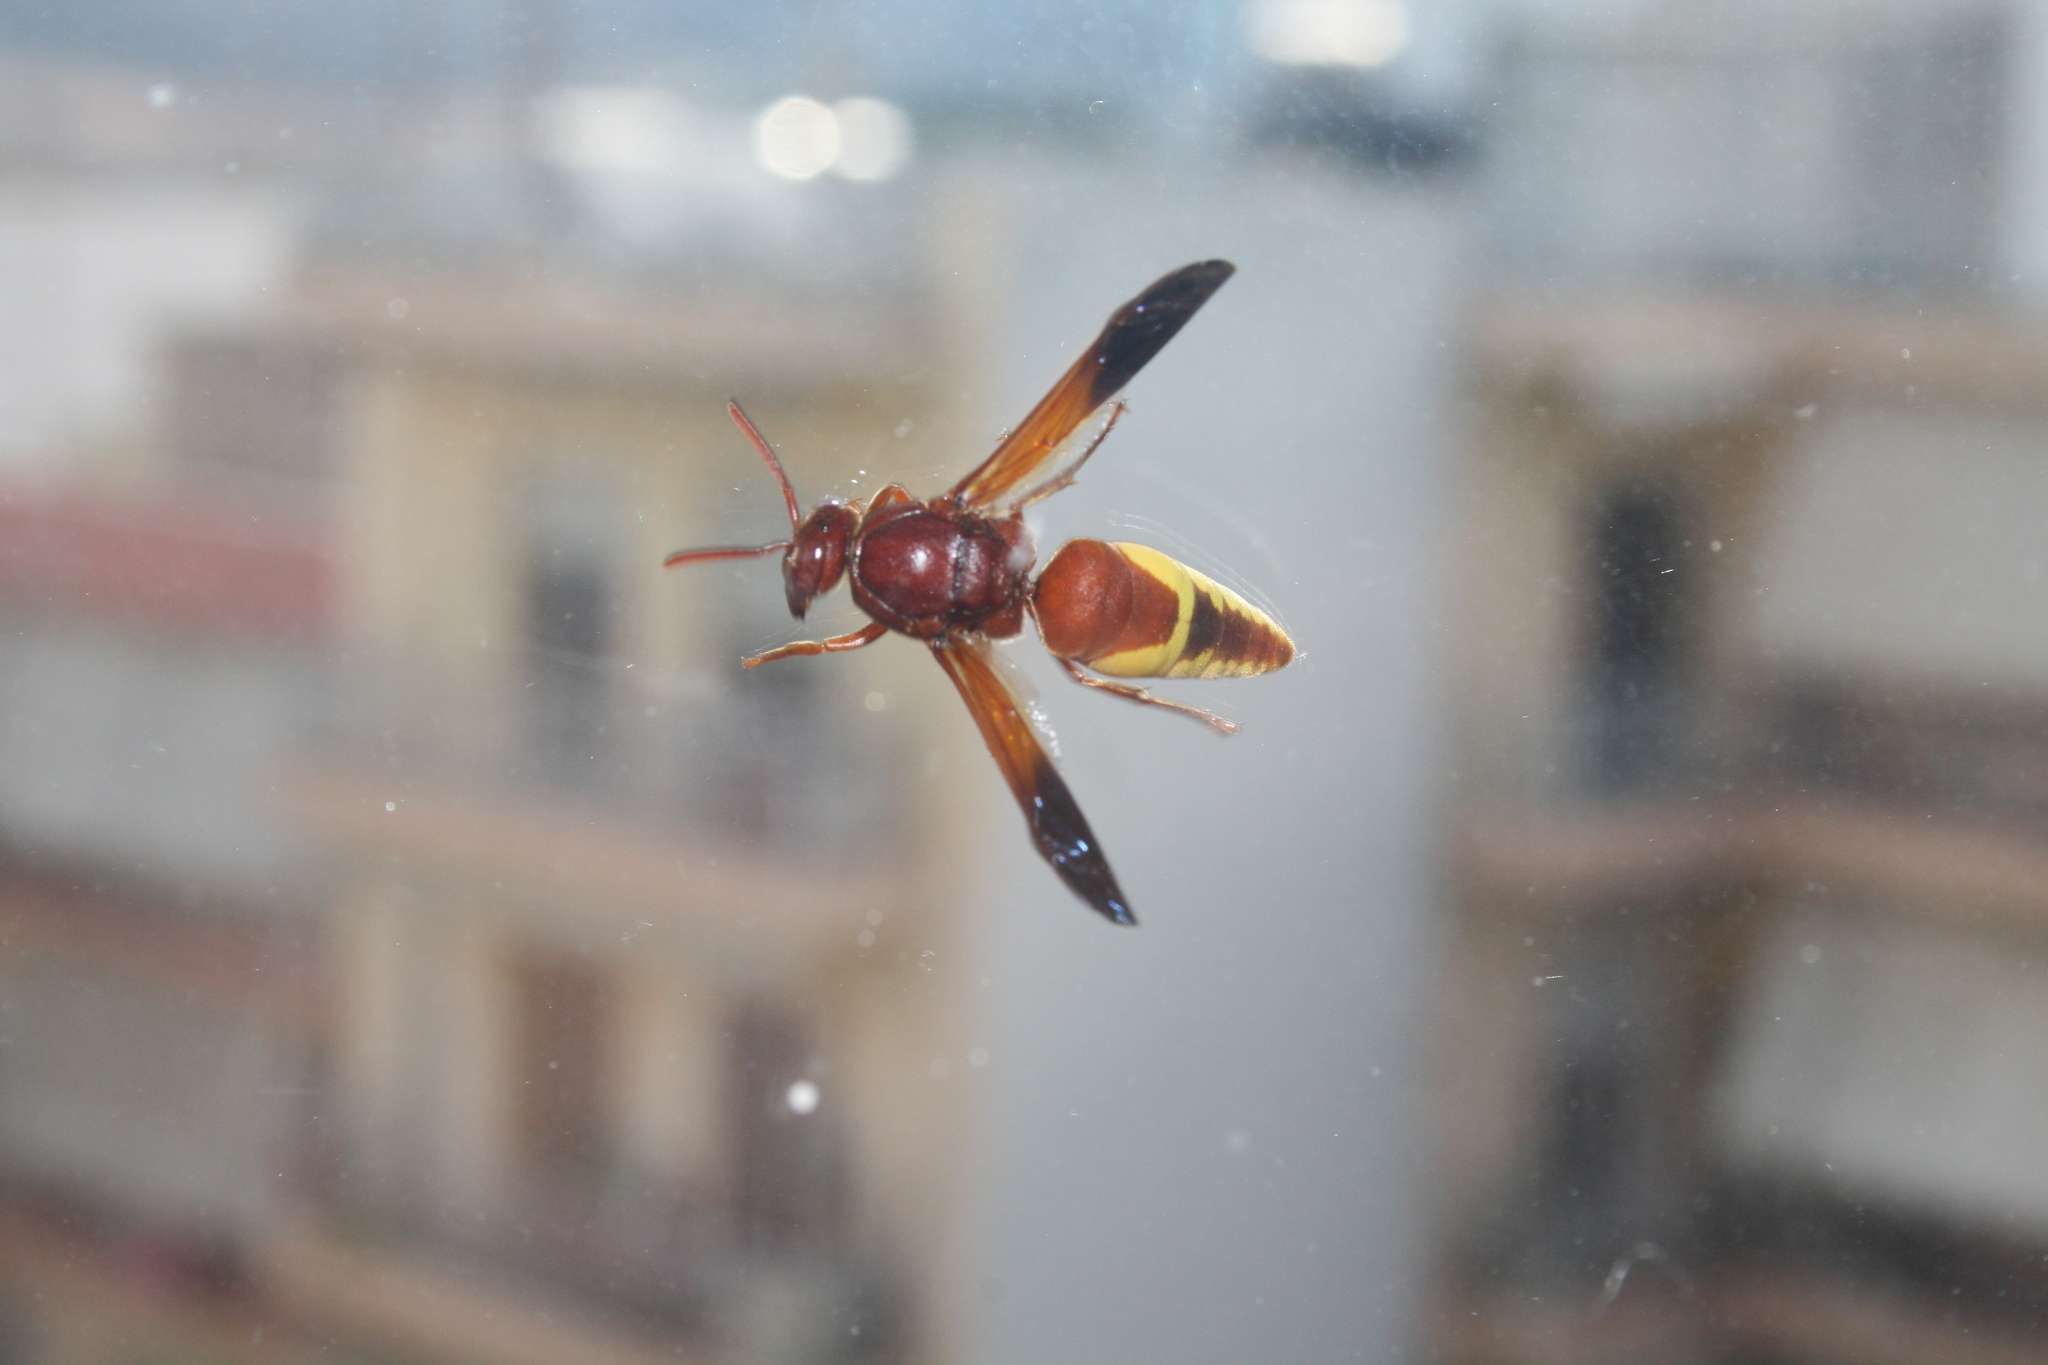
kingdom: Animalia
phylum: Arthropoda
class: Insecta
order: Hymenoptera
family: Eumenidae
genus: Rhynchium
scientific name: Rhynchium oculatum
